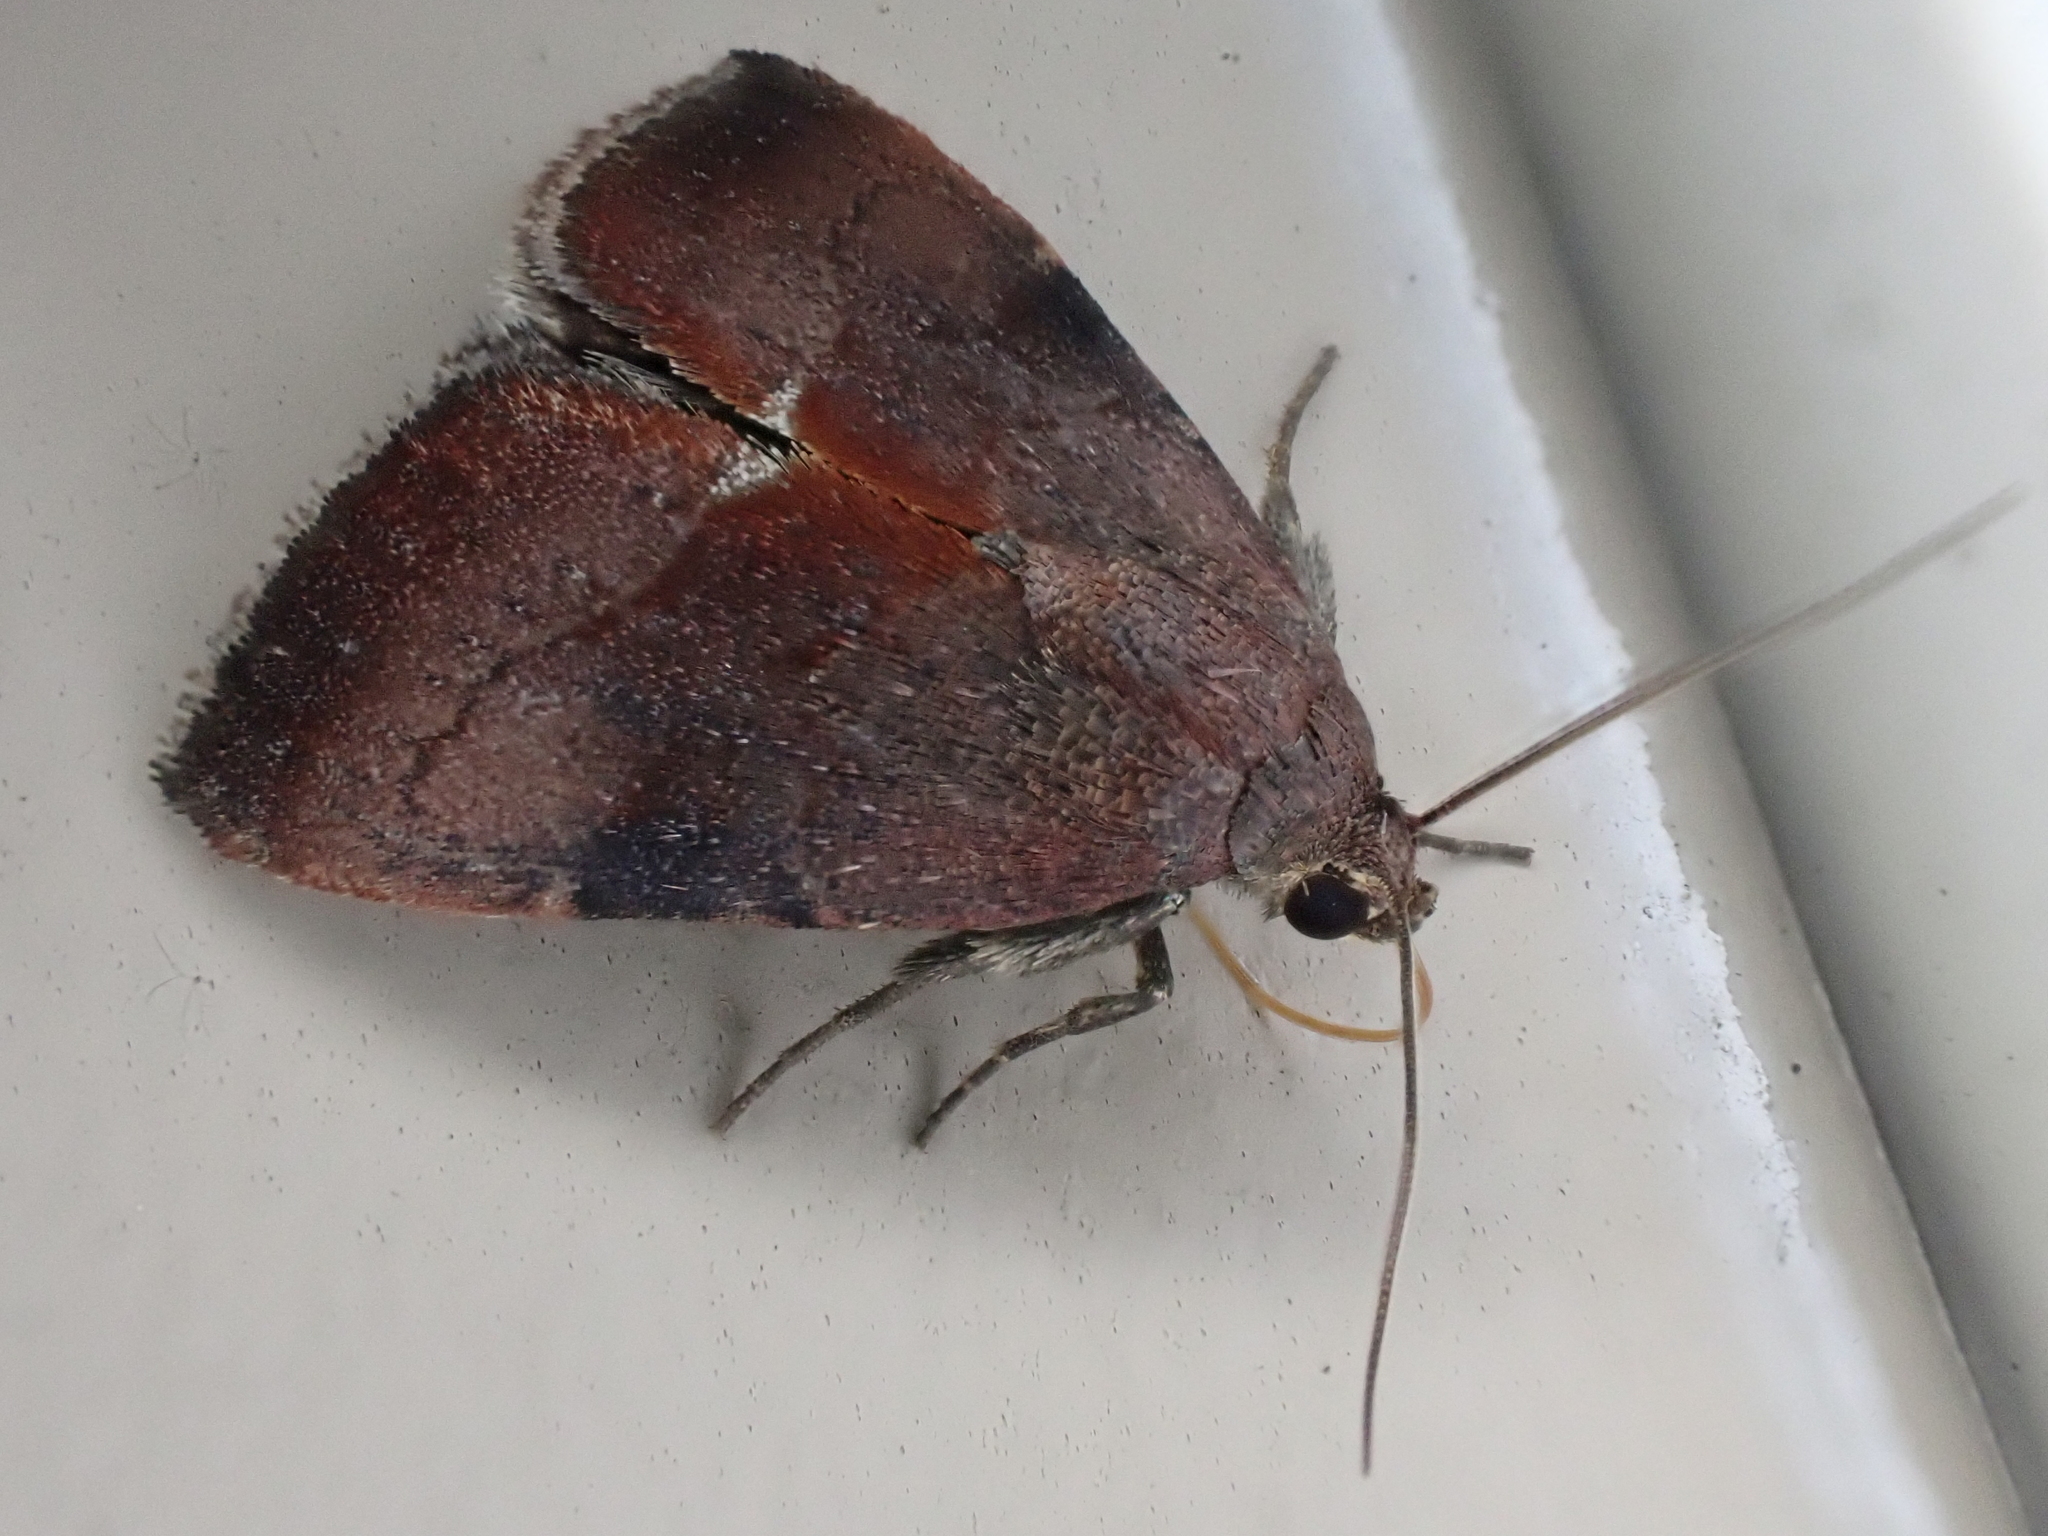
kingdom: Animalia
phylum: Arthropoda
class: Insecta
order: Lepidoptera
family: Noctuidae
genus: Galgula
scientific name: Galgula partita
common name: Wedgeling
